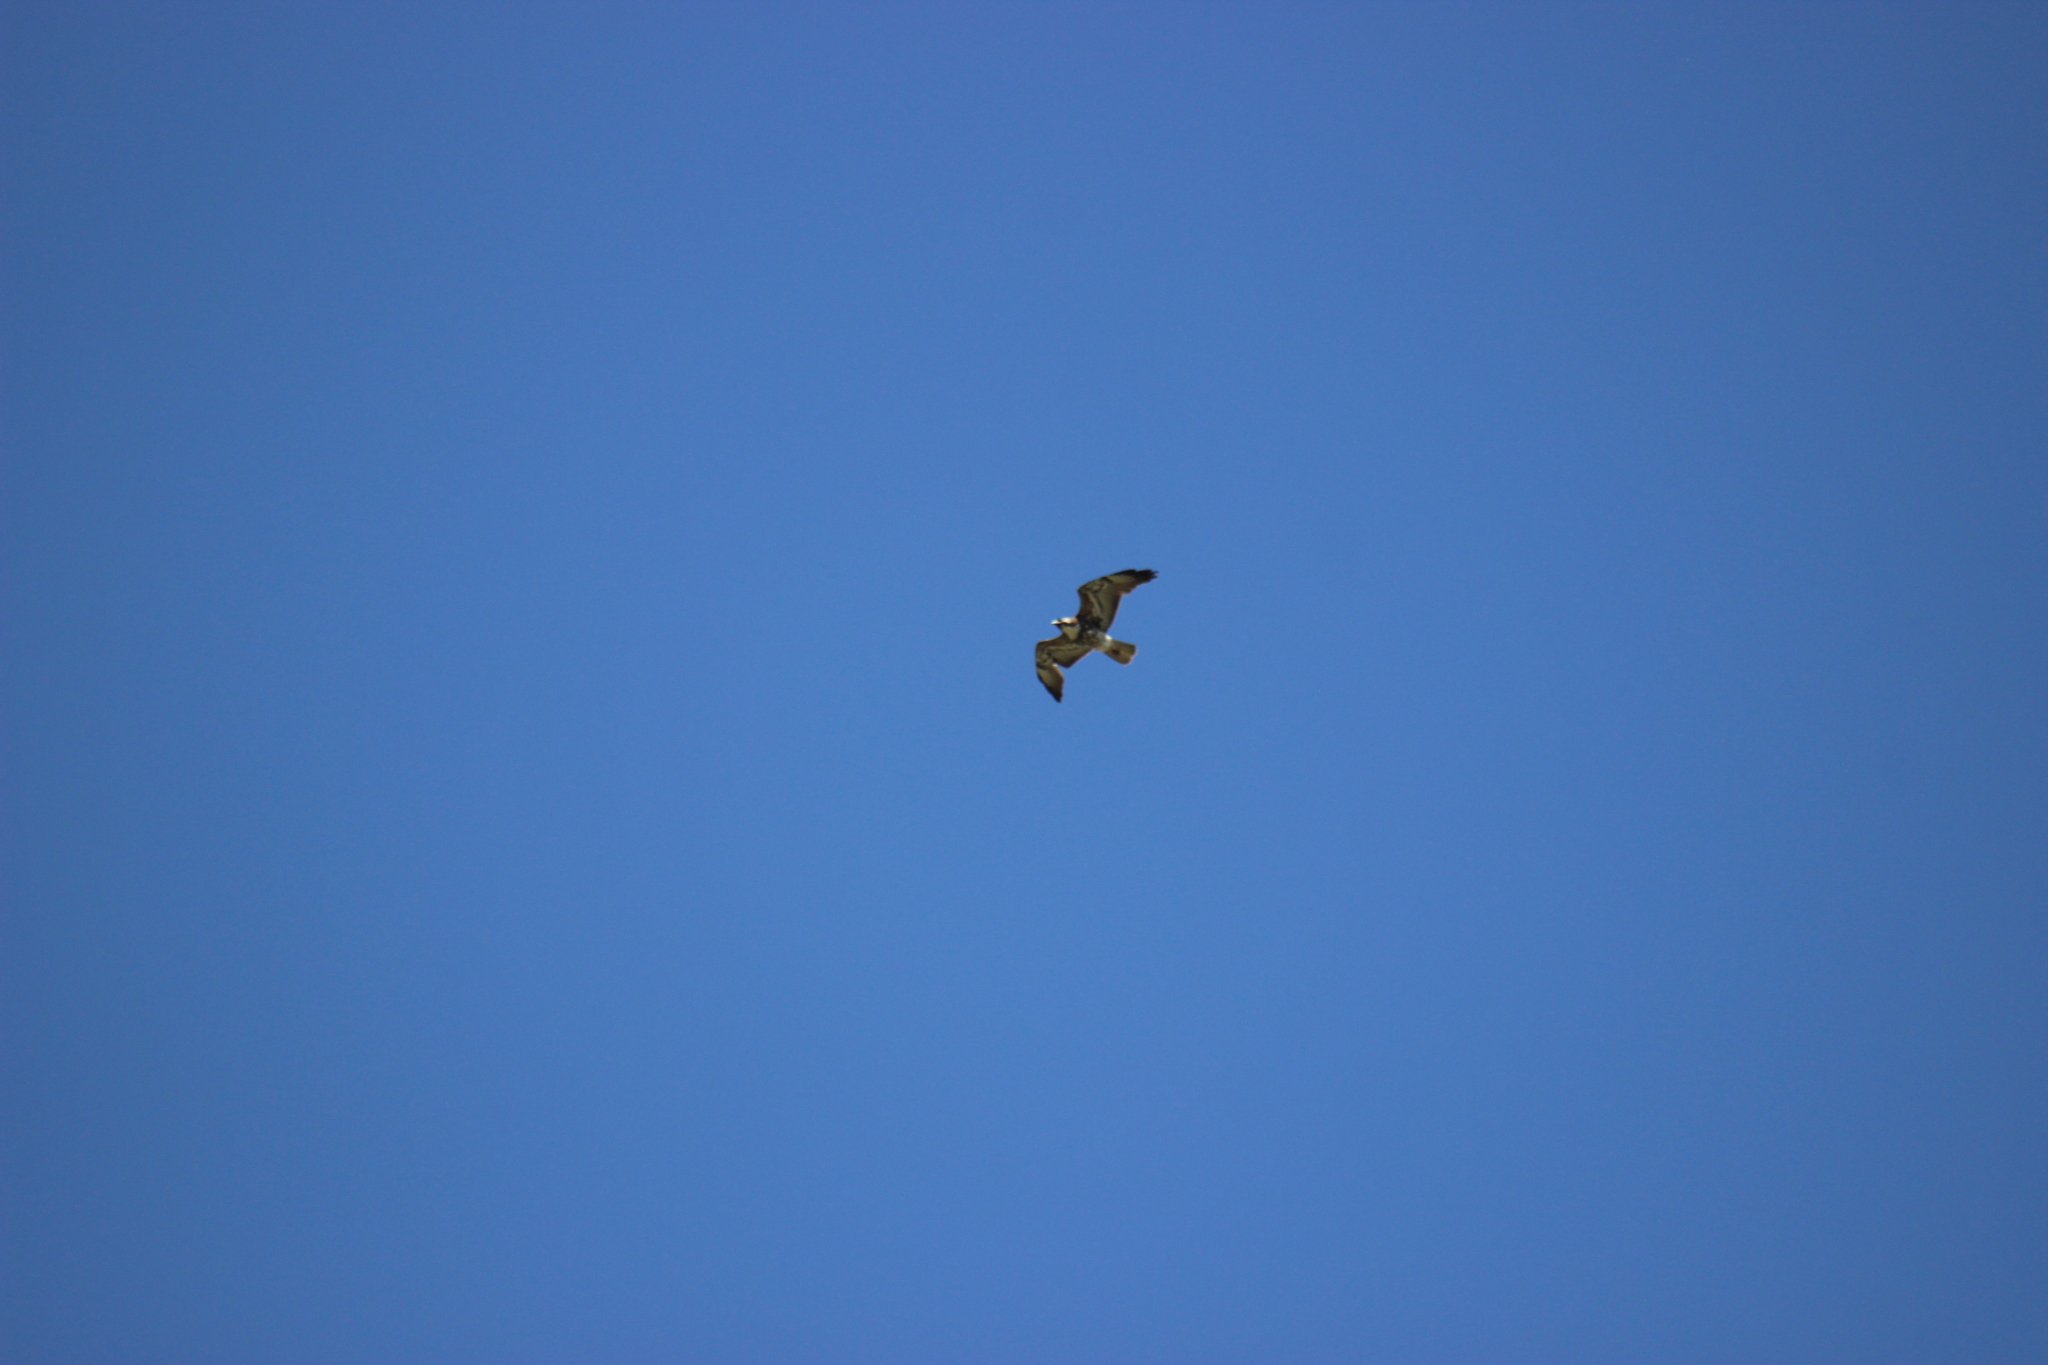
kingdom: Animalia
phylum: Chordata
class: Aves
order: Accipitriformes
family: Accipitridae
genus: Buteo
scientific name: Buteo albicaudatus
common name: White-tailed hawk
